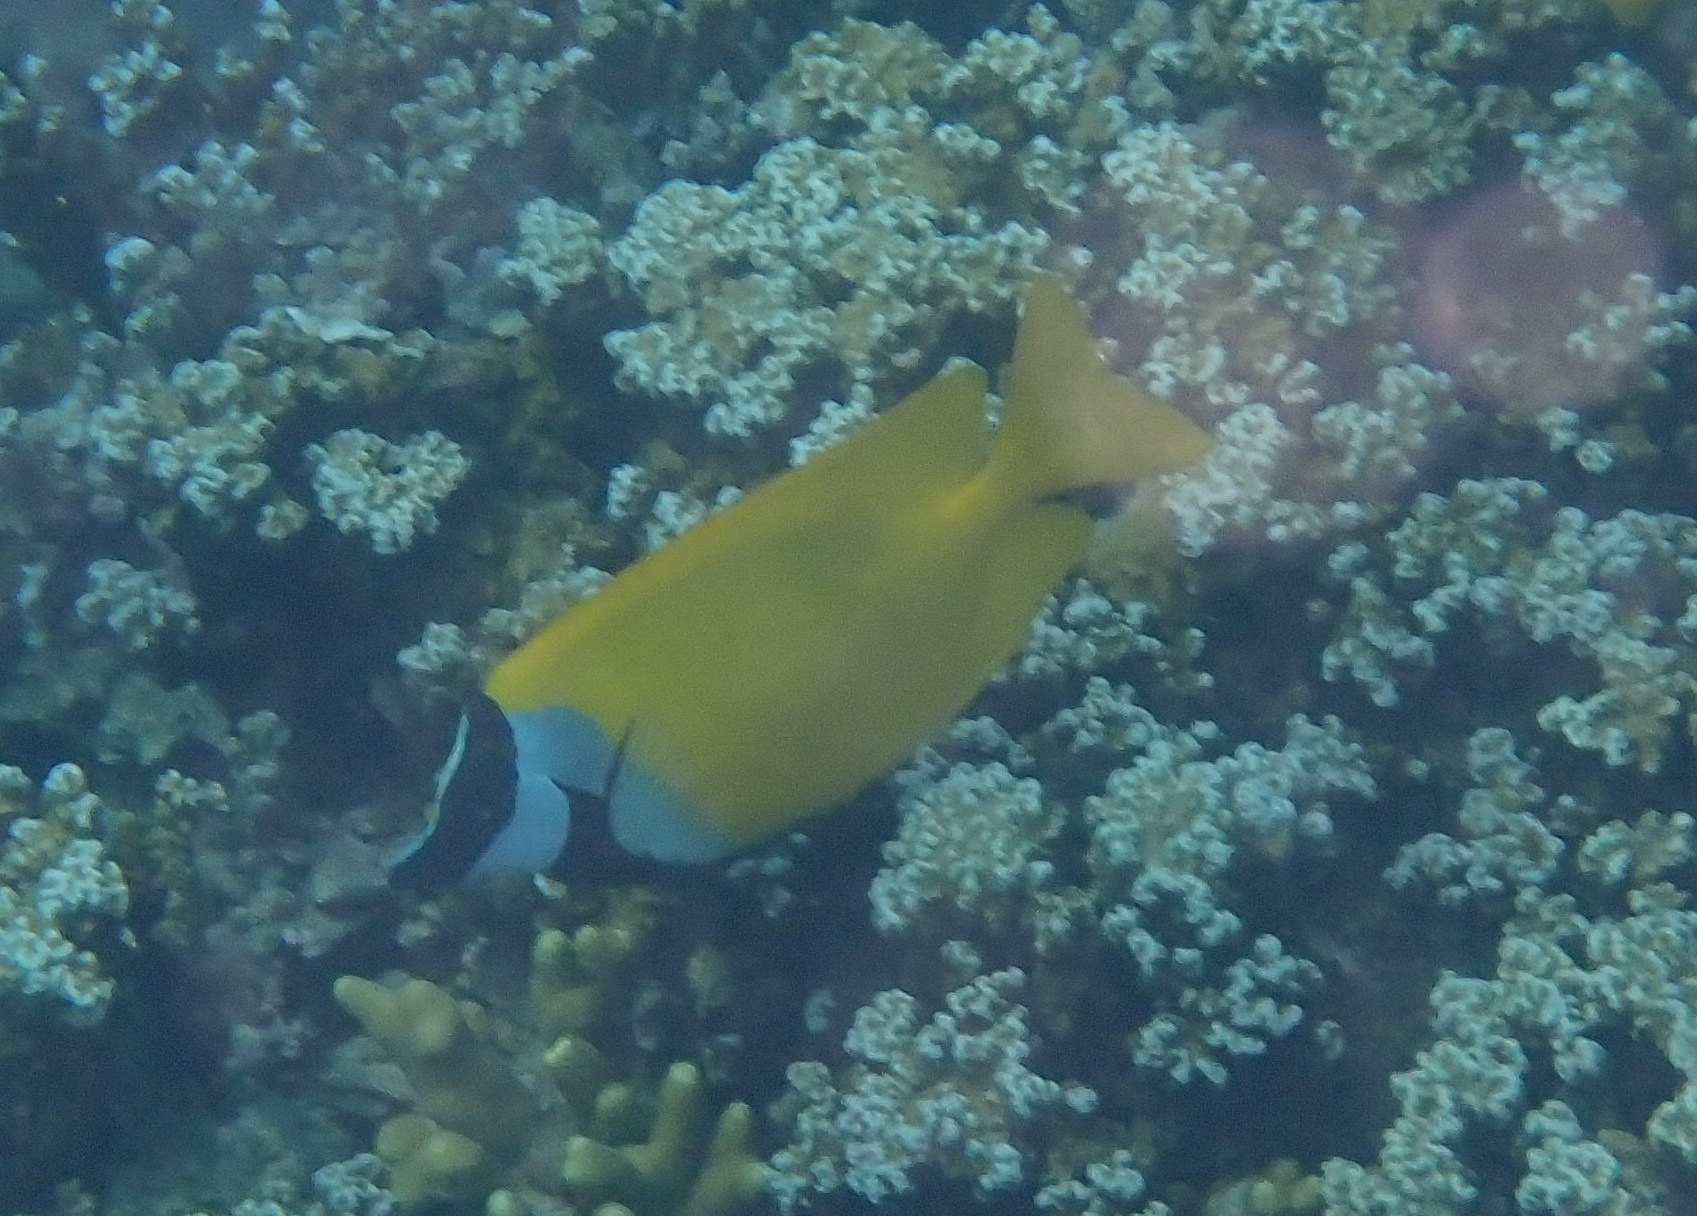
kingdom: Animalia
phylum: Chordata
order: Perciformes
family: Siganidae
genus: Siganus
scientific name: Siganus vulpinus
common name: Foxface
